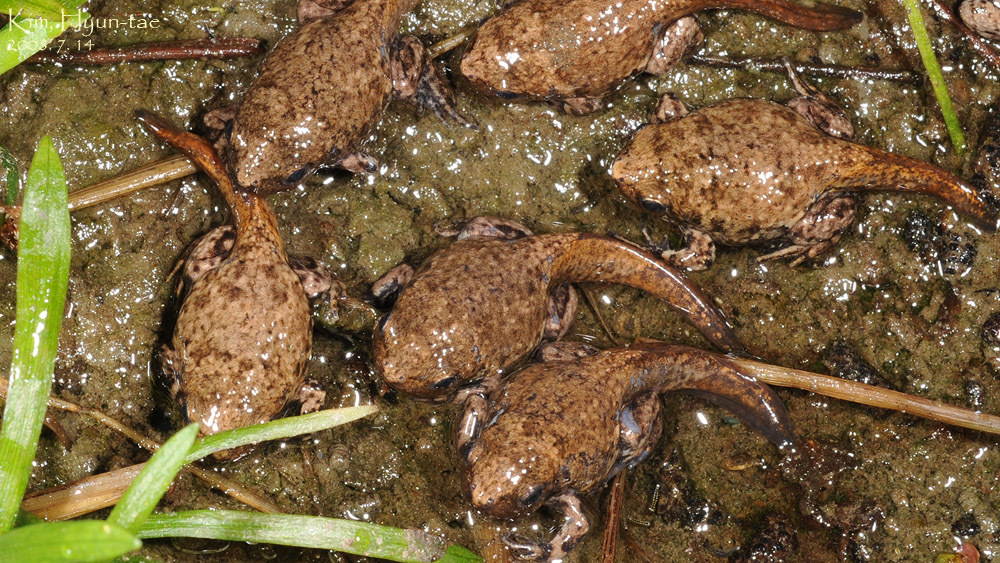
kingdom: Animalia
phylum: Chordata
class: Amphibia
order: Anura
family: Microhylidae
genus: Kaloula
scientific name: Kaloula borealis
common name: Boreal digging frog
